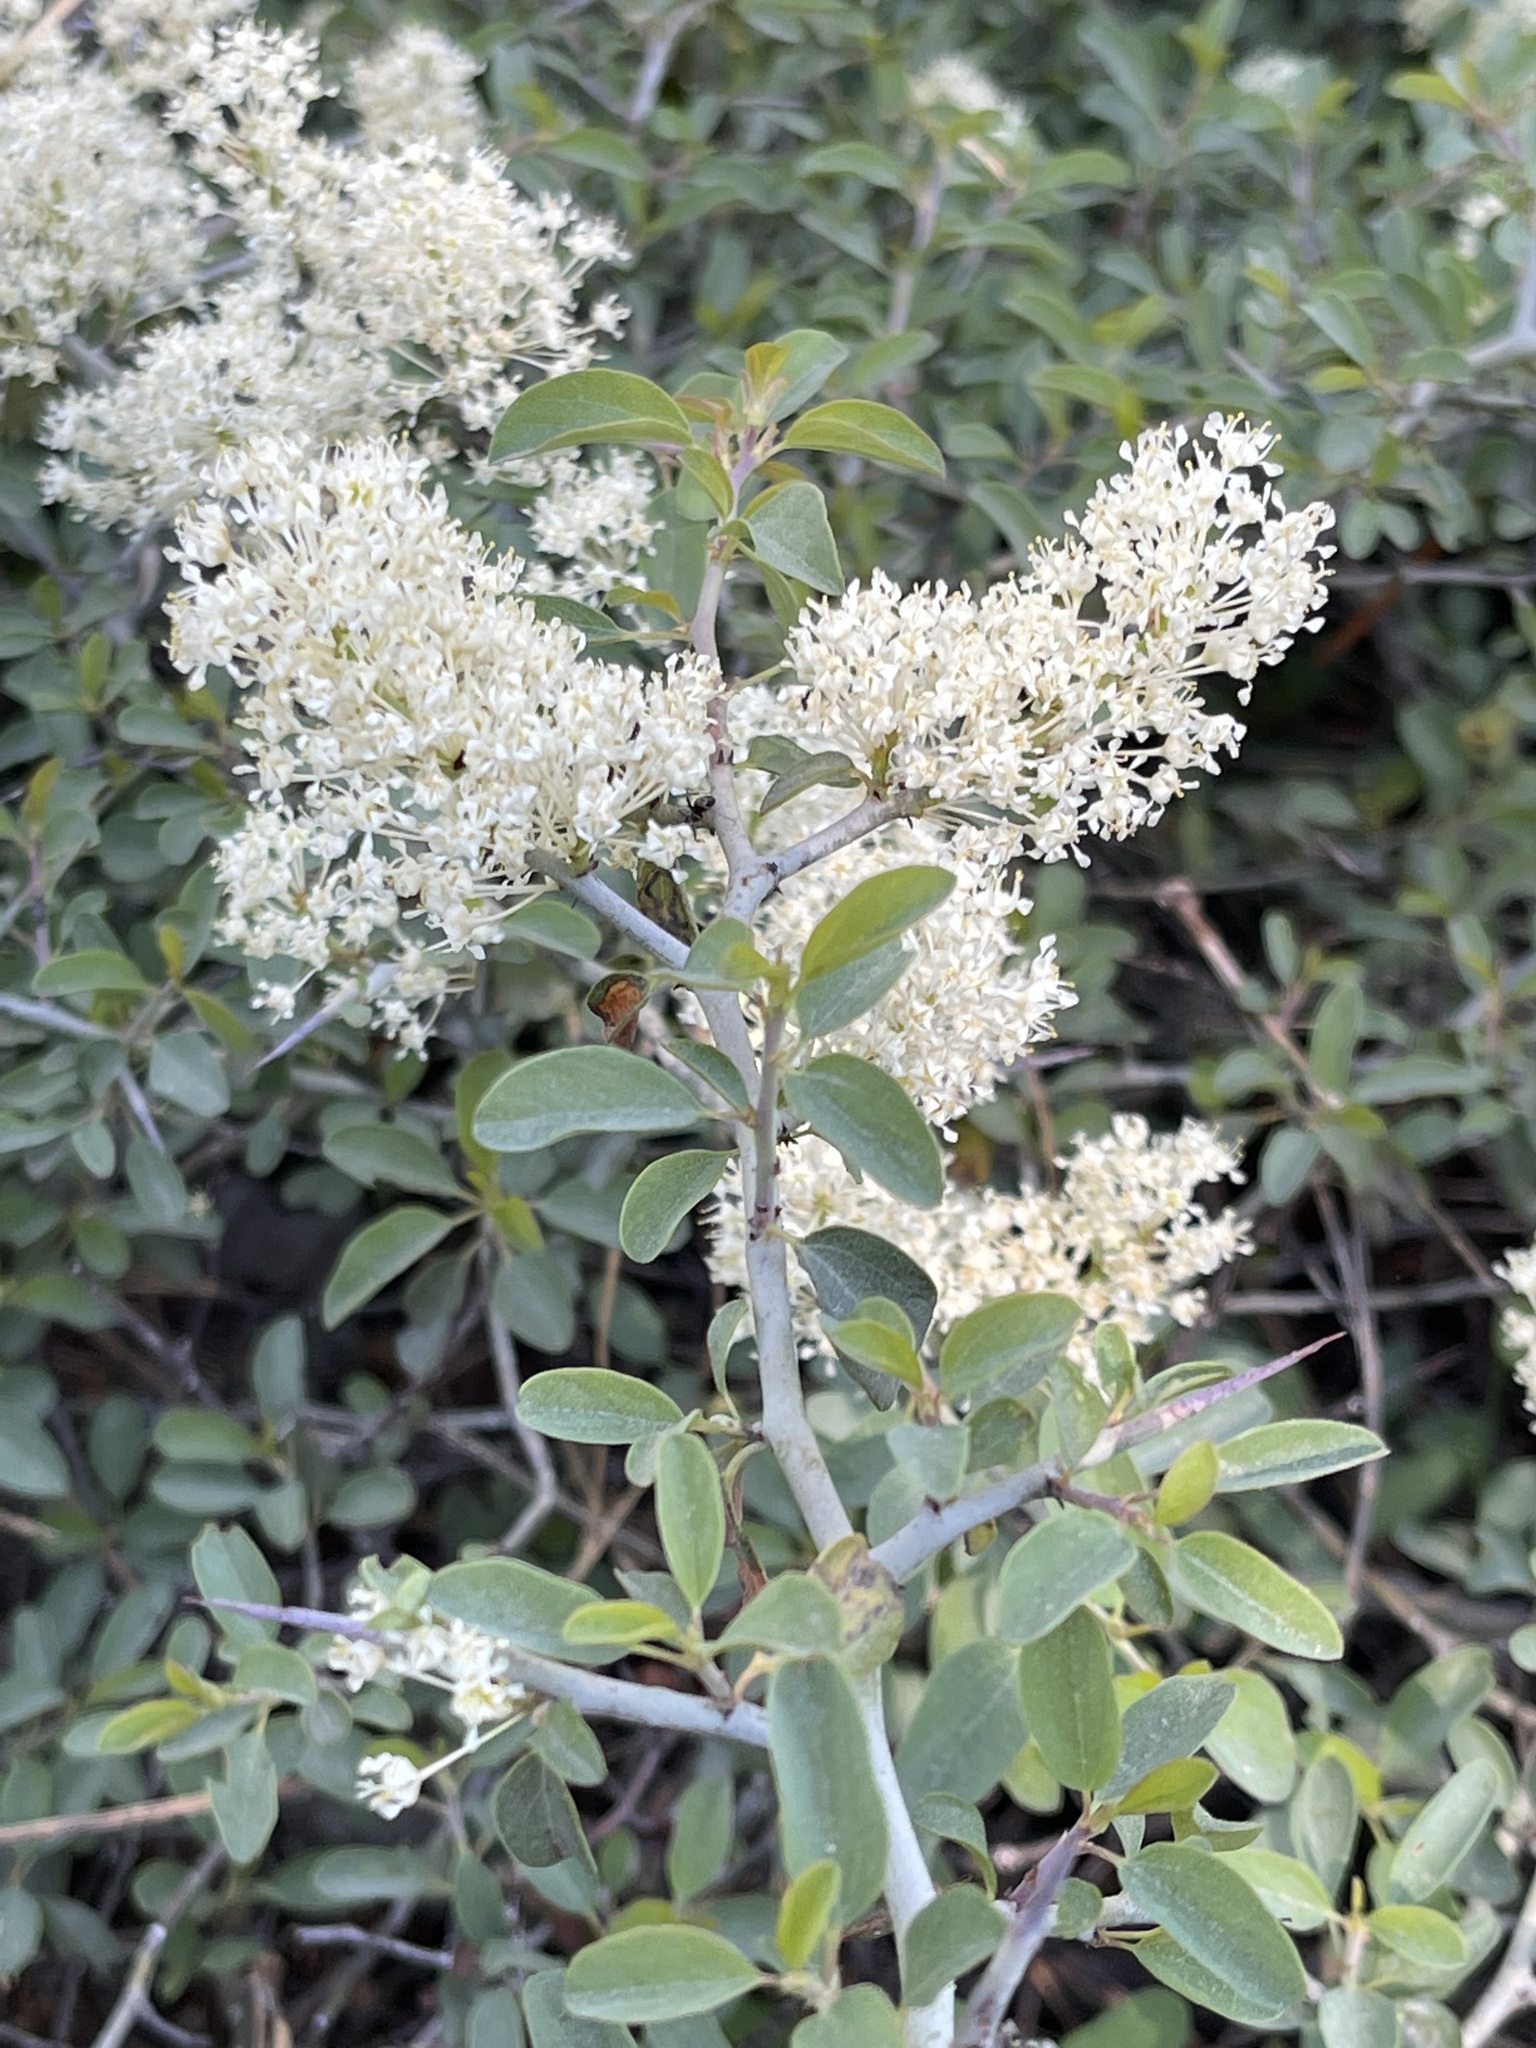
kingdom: Plantae
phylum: Tracheophyta
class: Magnoliopsida
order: Rosales
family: Rhamnaceae
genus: Ceanothus
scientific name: Ceanothus cordulatus
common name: Mountain whitethorn
